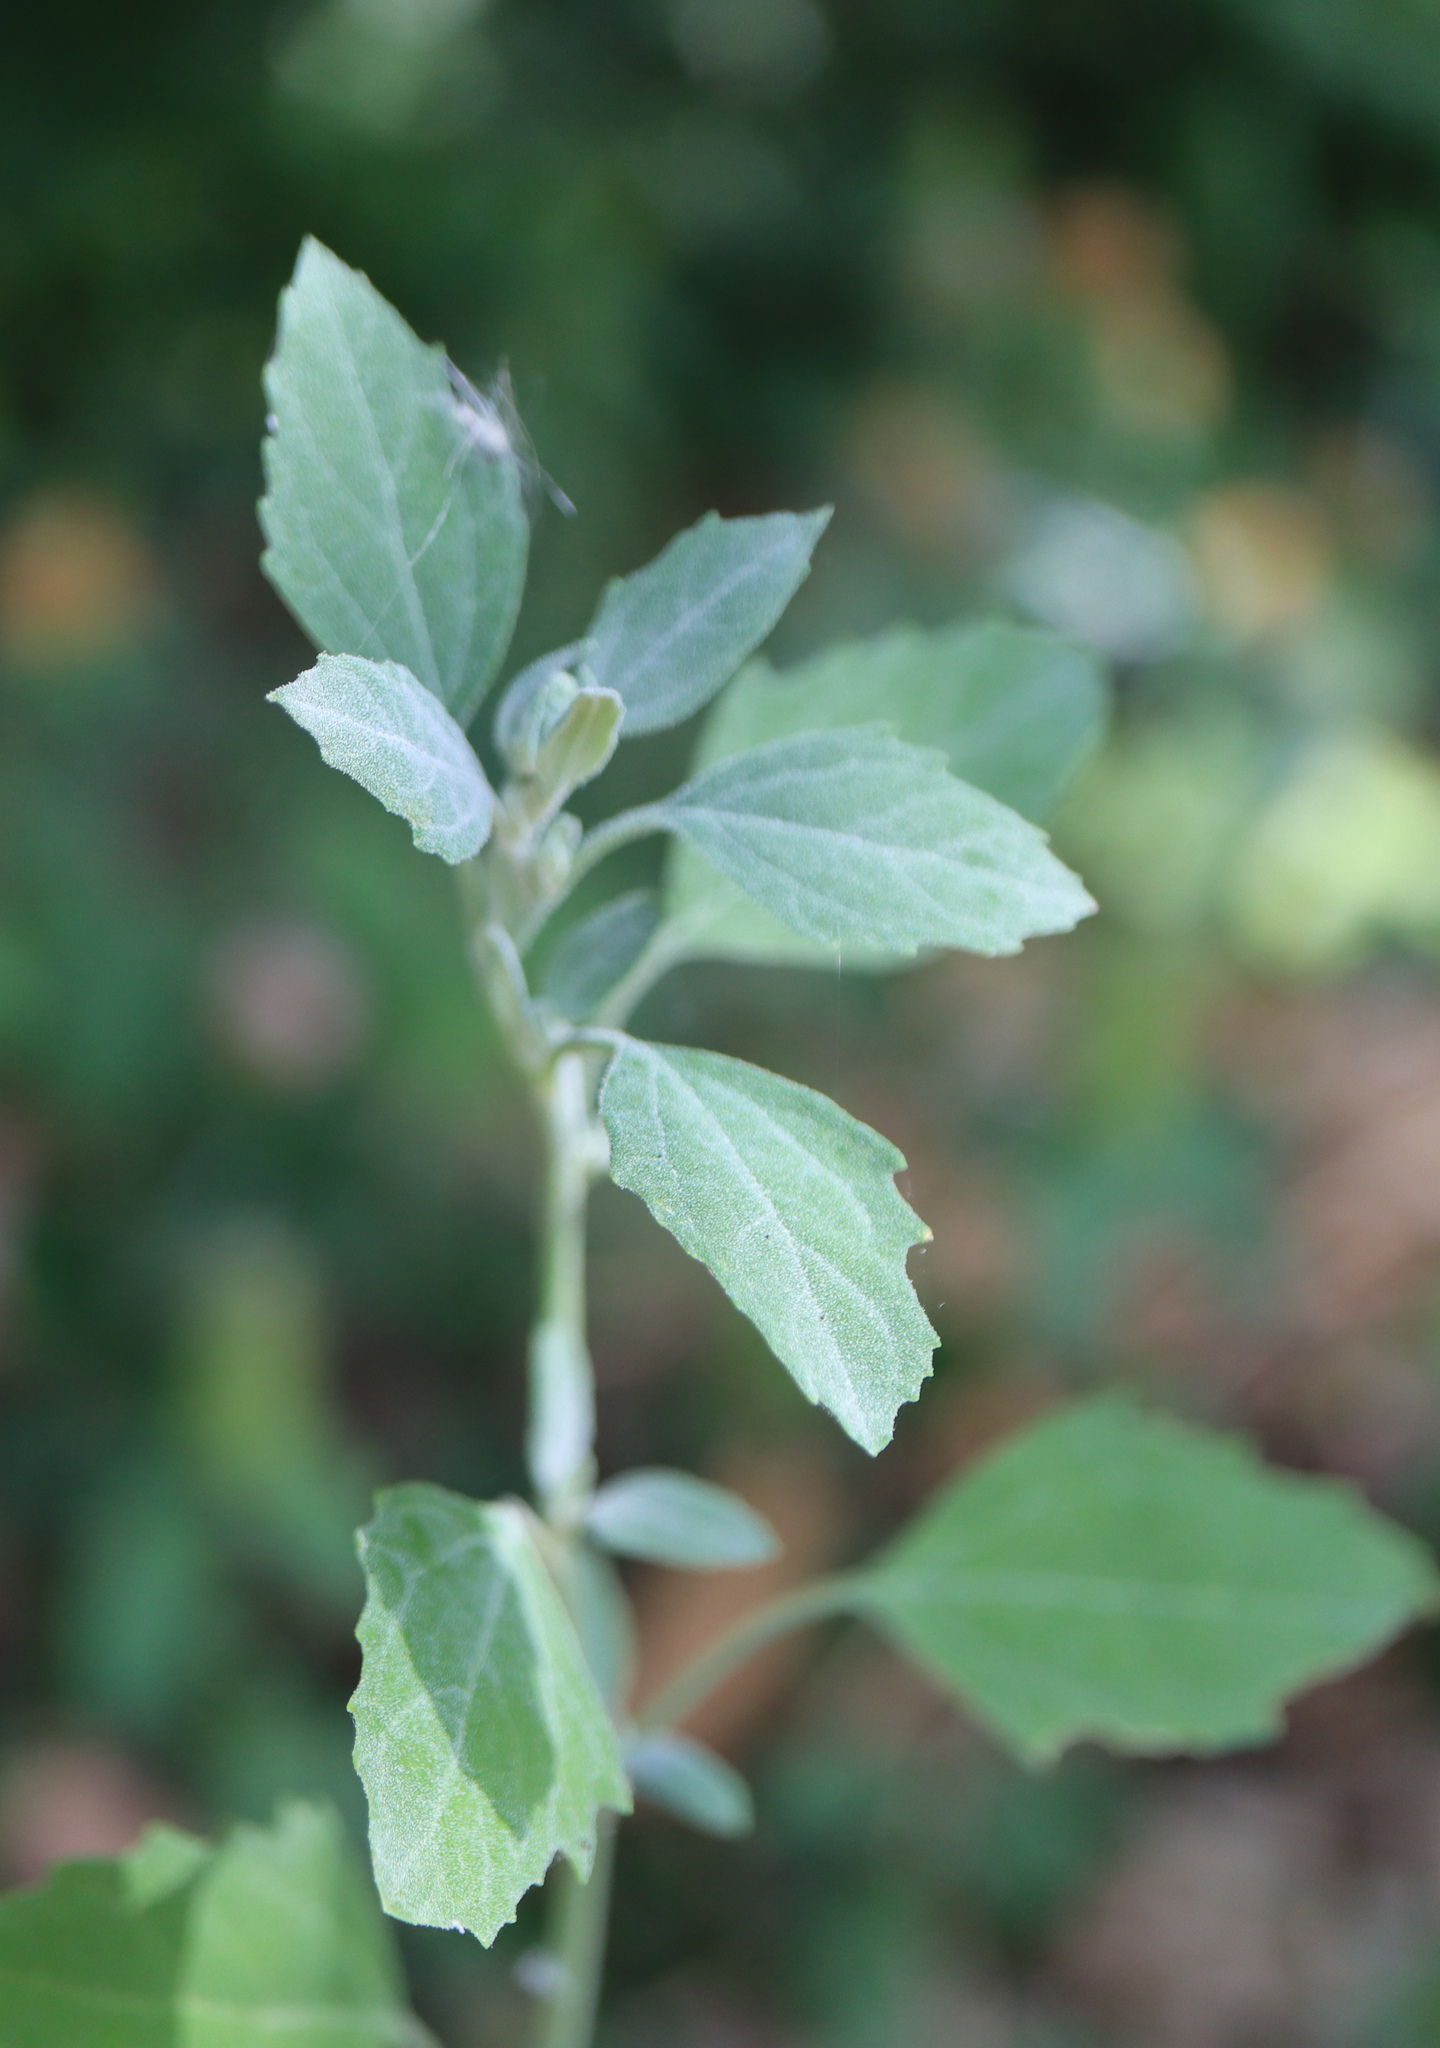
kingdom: Plantae
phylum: Tracheophyta
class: Magnoliopsida
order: Caryophyllales
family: Amaranthaceae
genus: Chenopodium
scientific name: Chenopodium album
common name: Fat-hen
